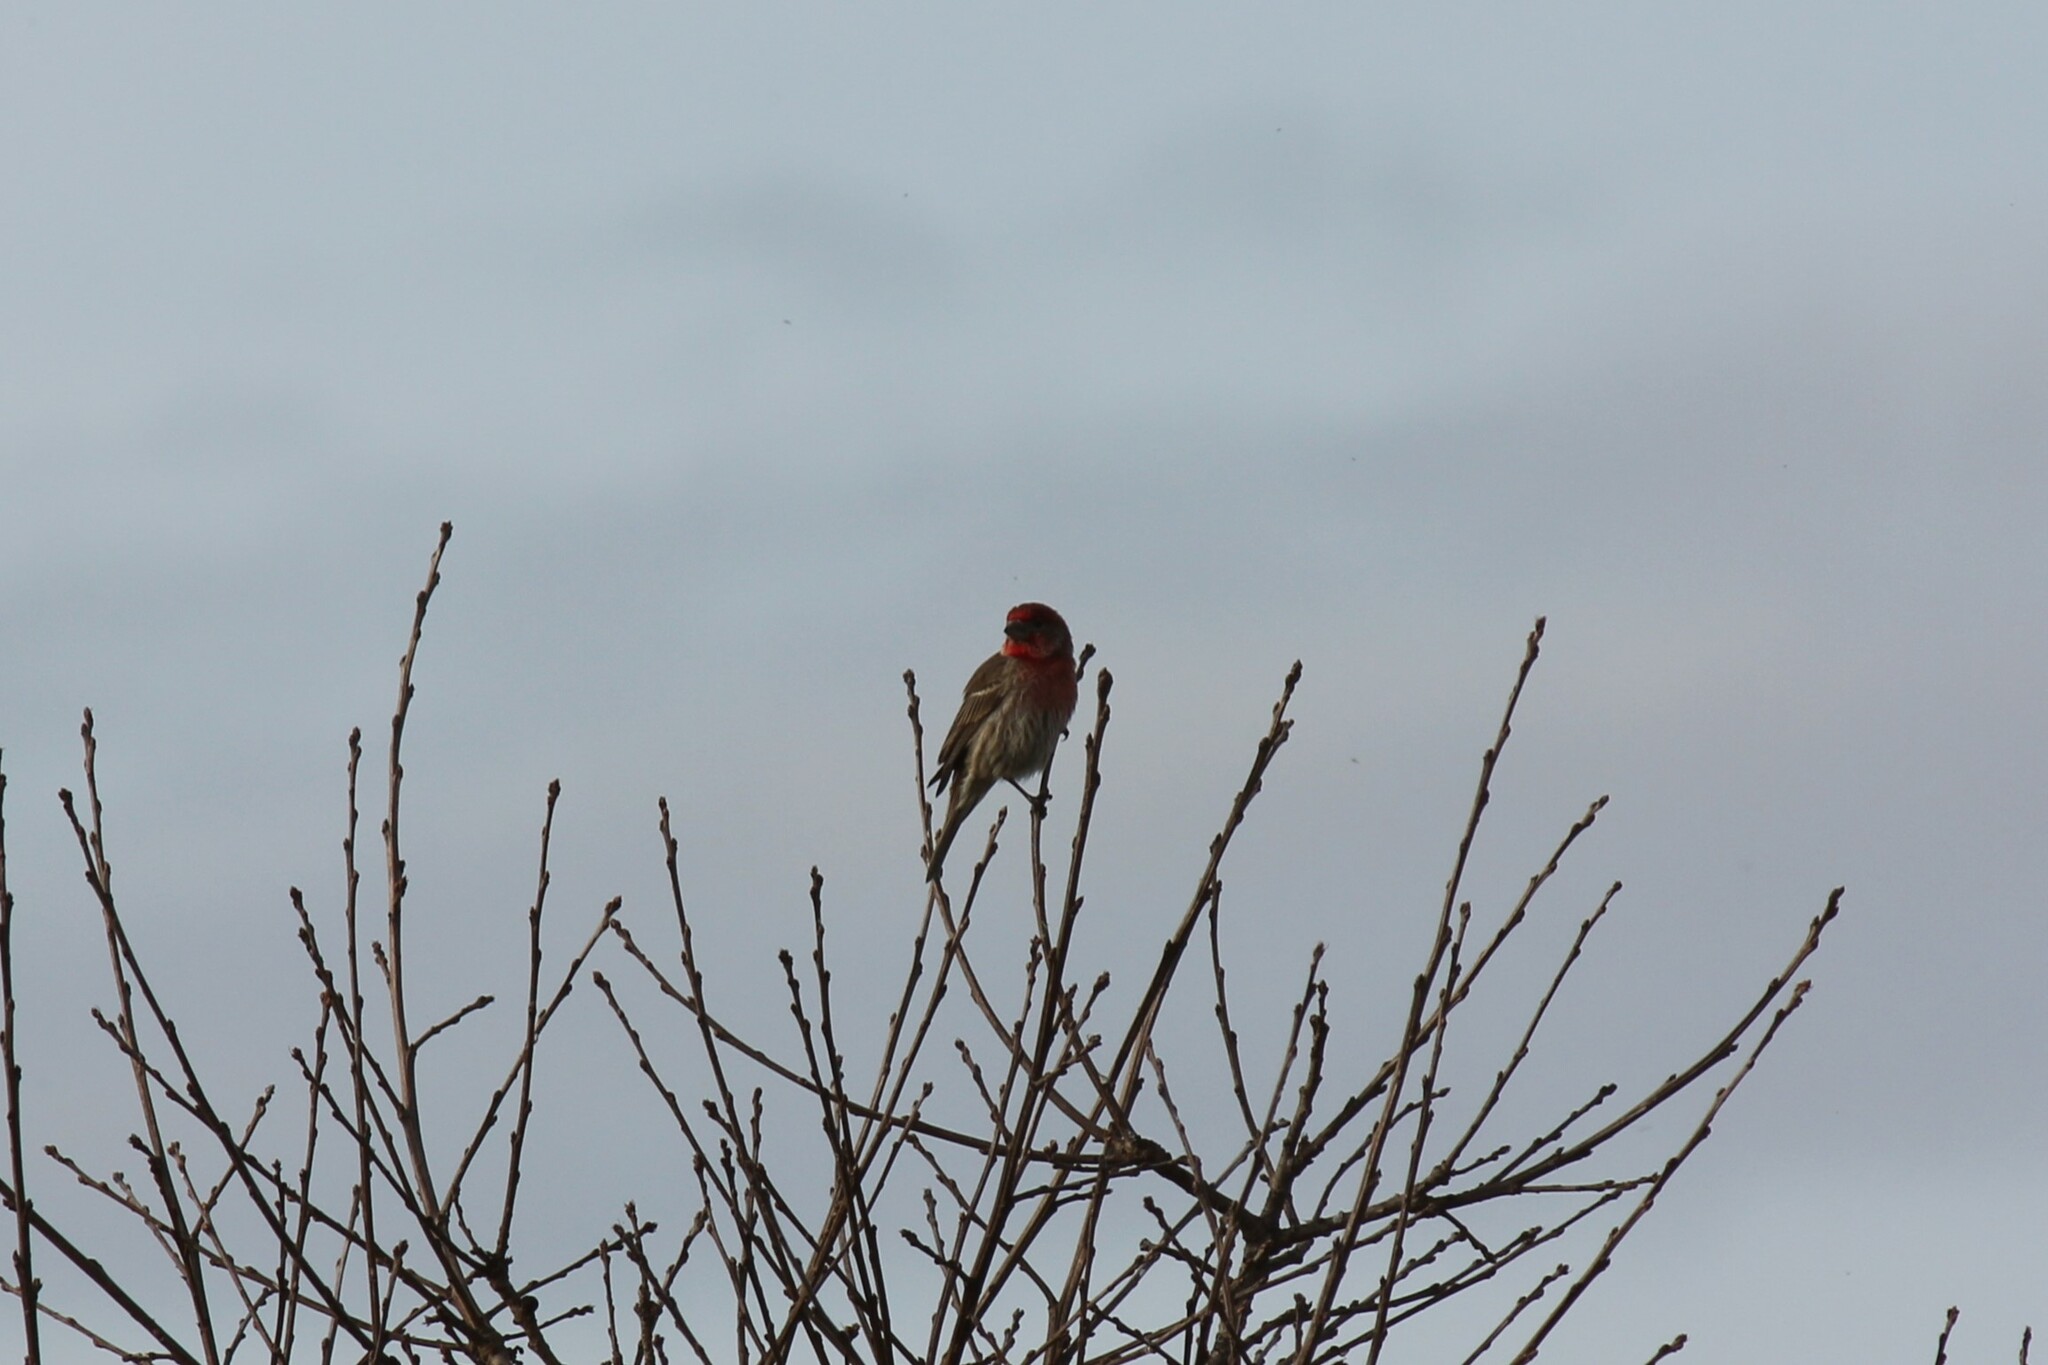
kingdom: Animalia
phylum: Chordata
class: Aves
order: Passeriformes
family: Fringillidae
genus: Haemorhous
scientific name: Haemorhous mexicanus
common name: House finch
